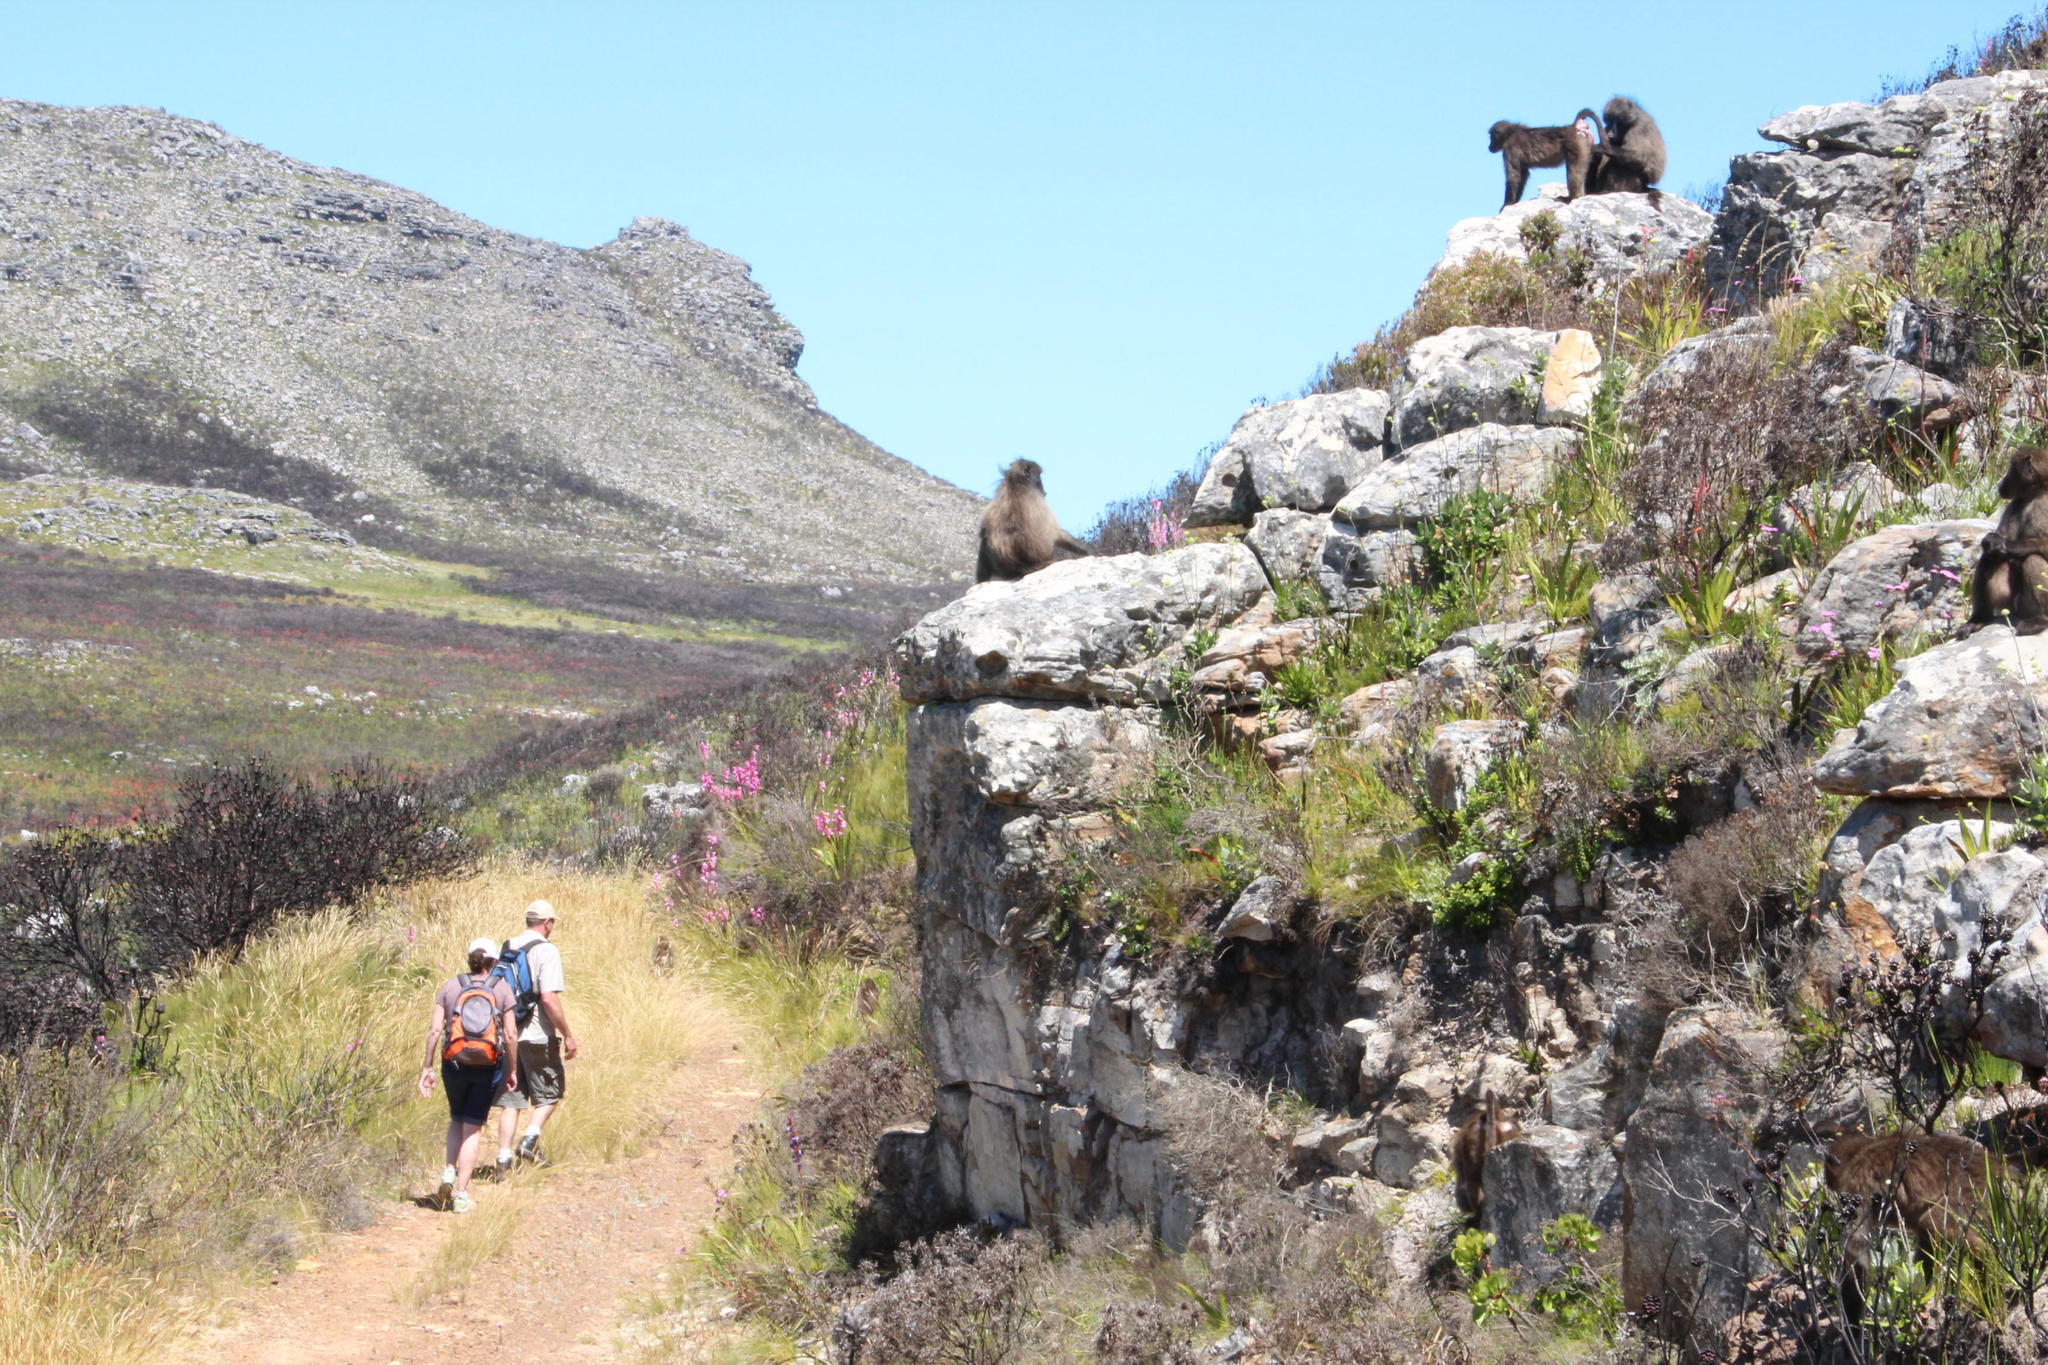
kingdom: Animalia
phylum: Chordata
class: Mammalia
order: Primates
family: Cercopithecidae
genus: Papio
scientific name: Papio ursinus
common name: Chacma baboon
